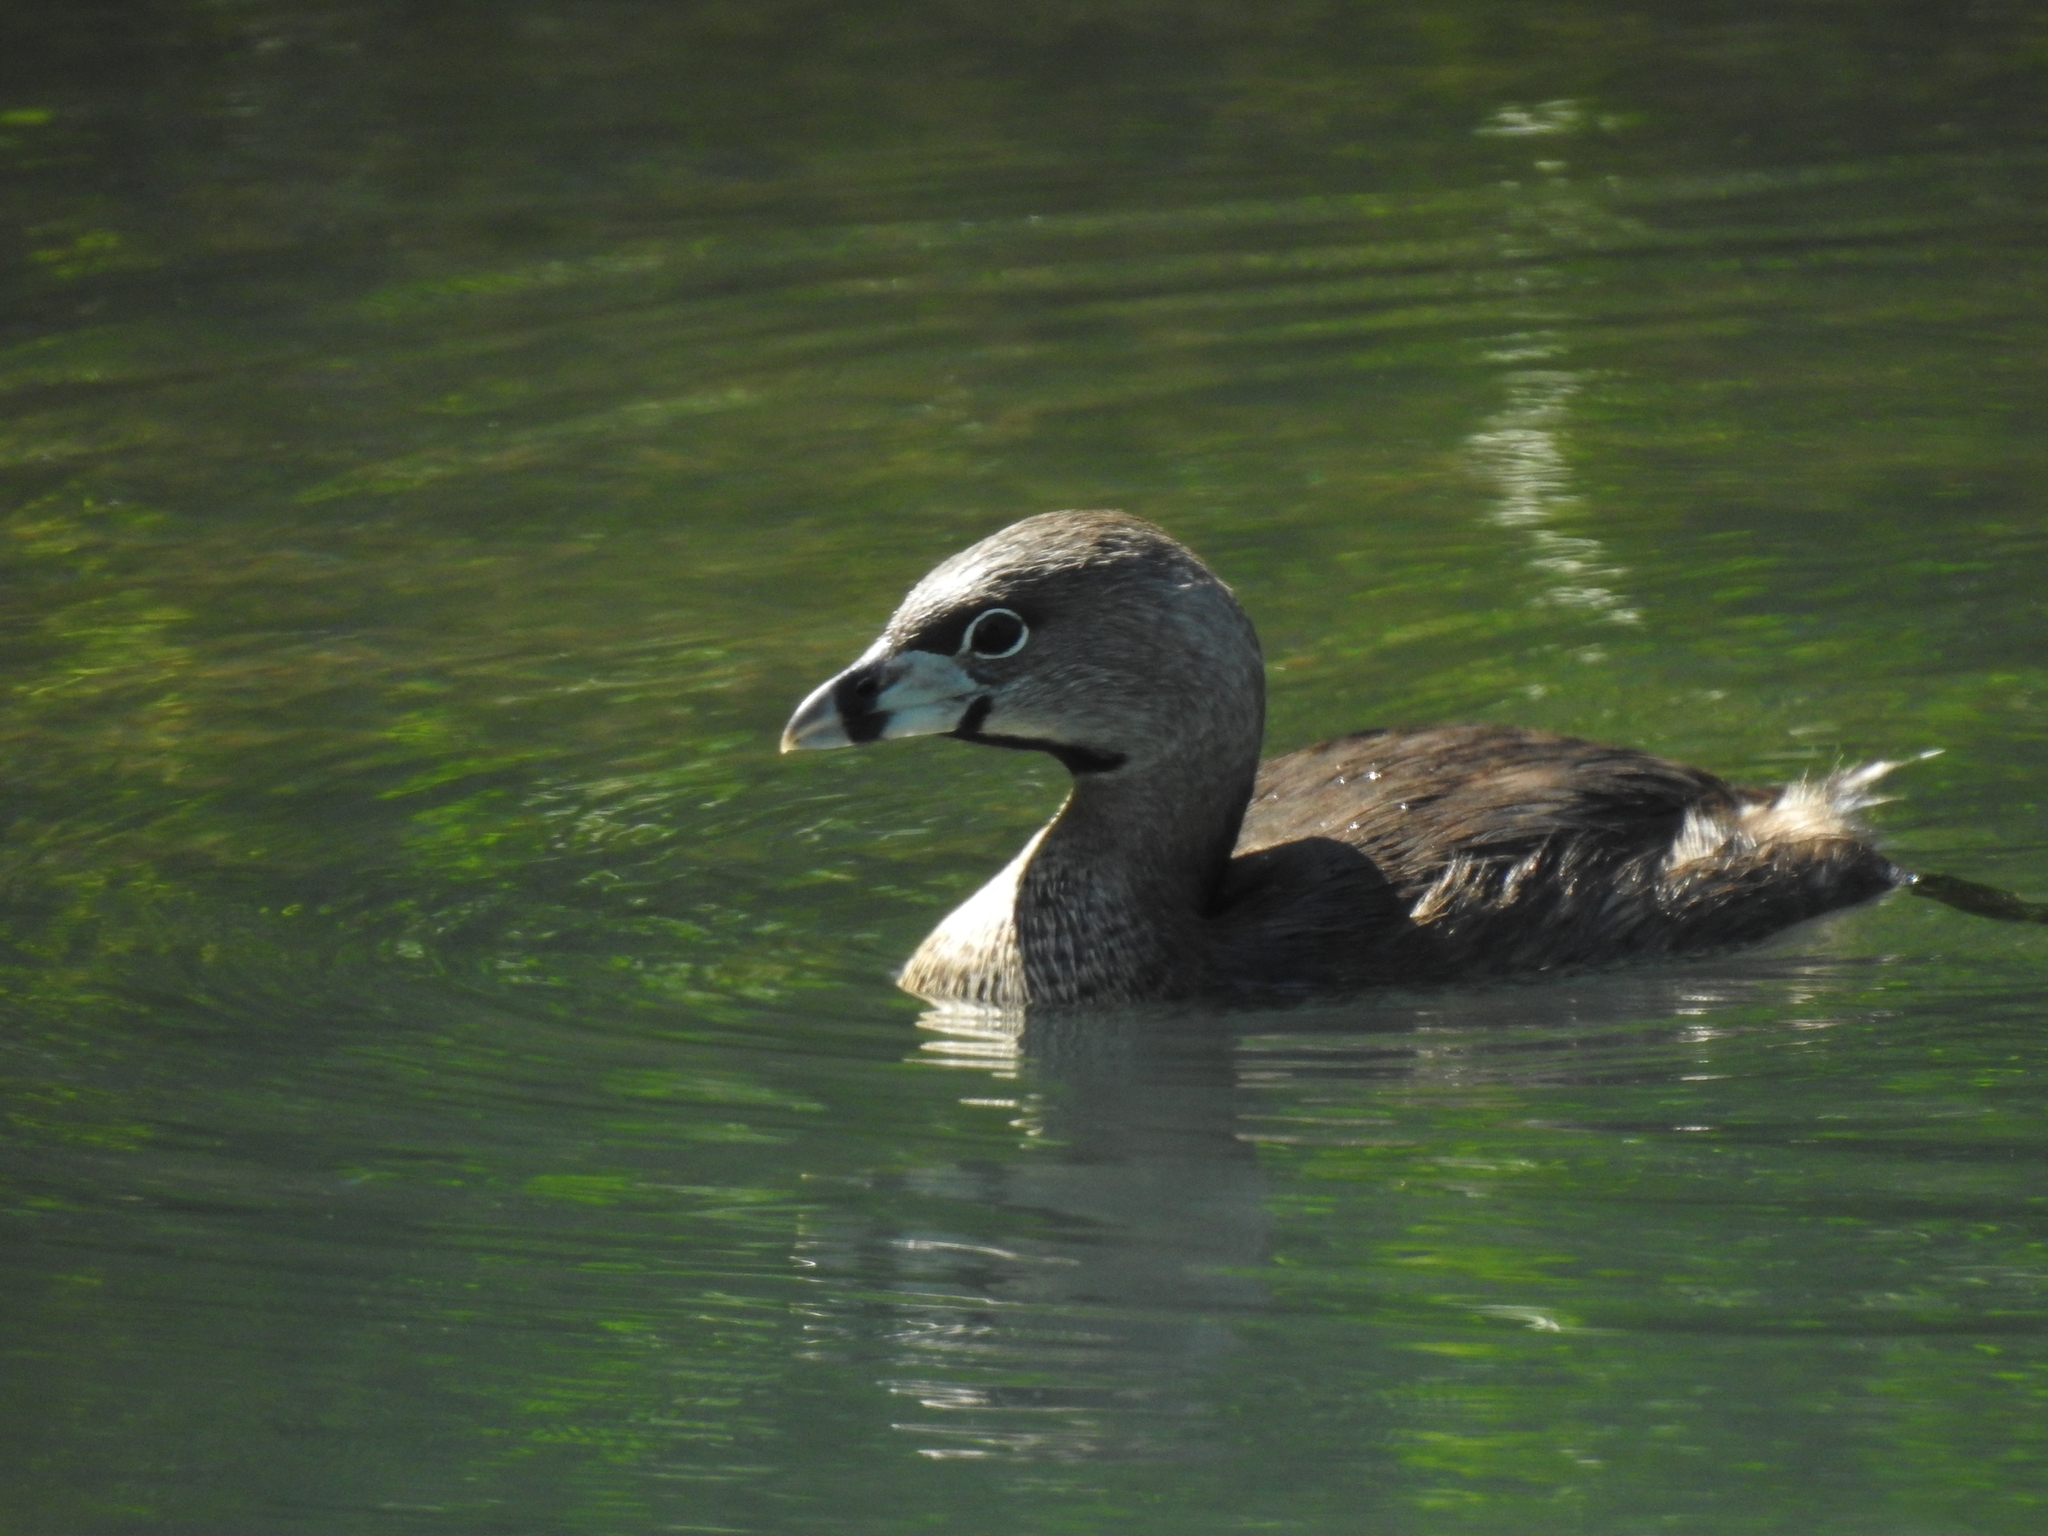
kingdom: Animalia
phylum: Chordata
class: Aves
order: Podicipediformes
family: Podicipedidae
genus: Podilymbus
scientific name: Podilymbus podiceps
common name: Pied-billed grebe
